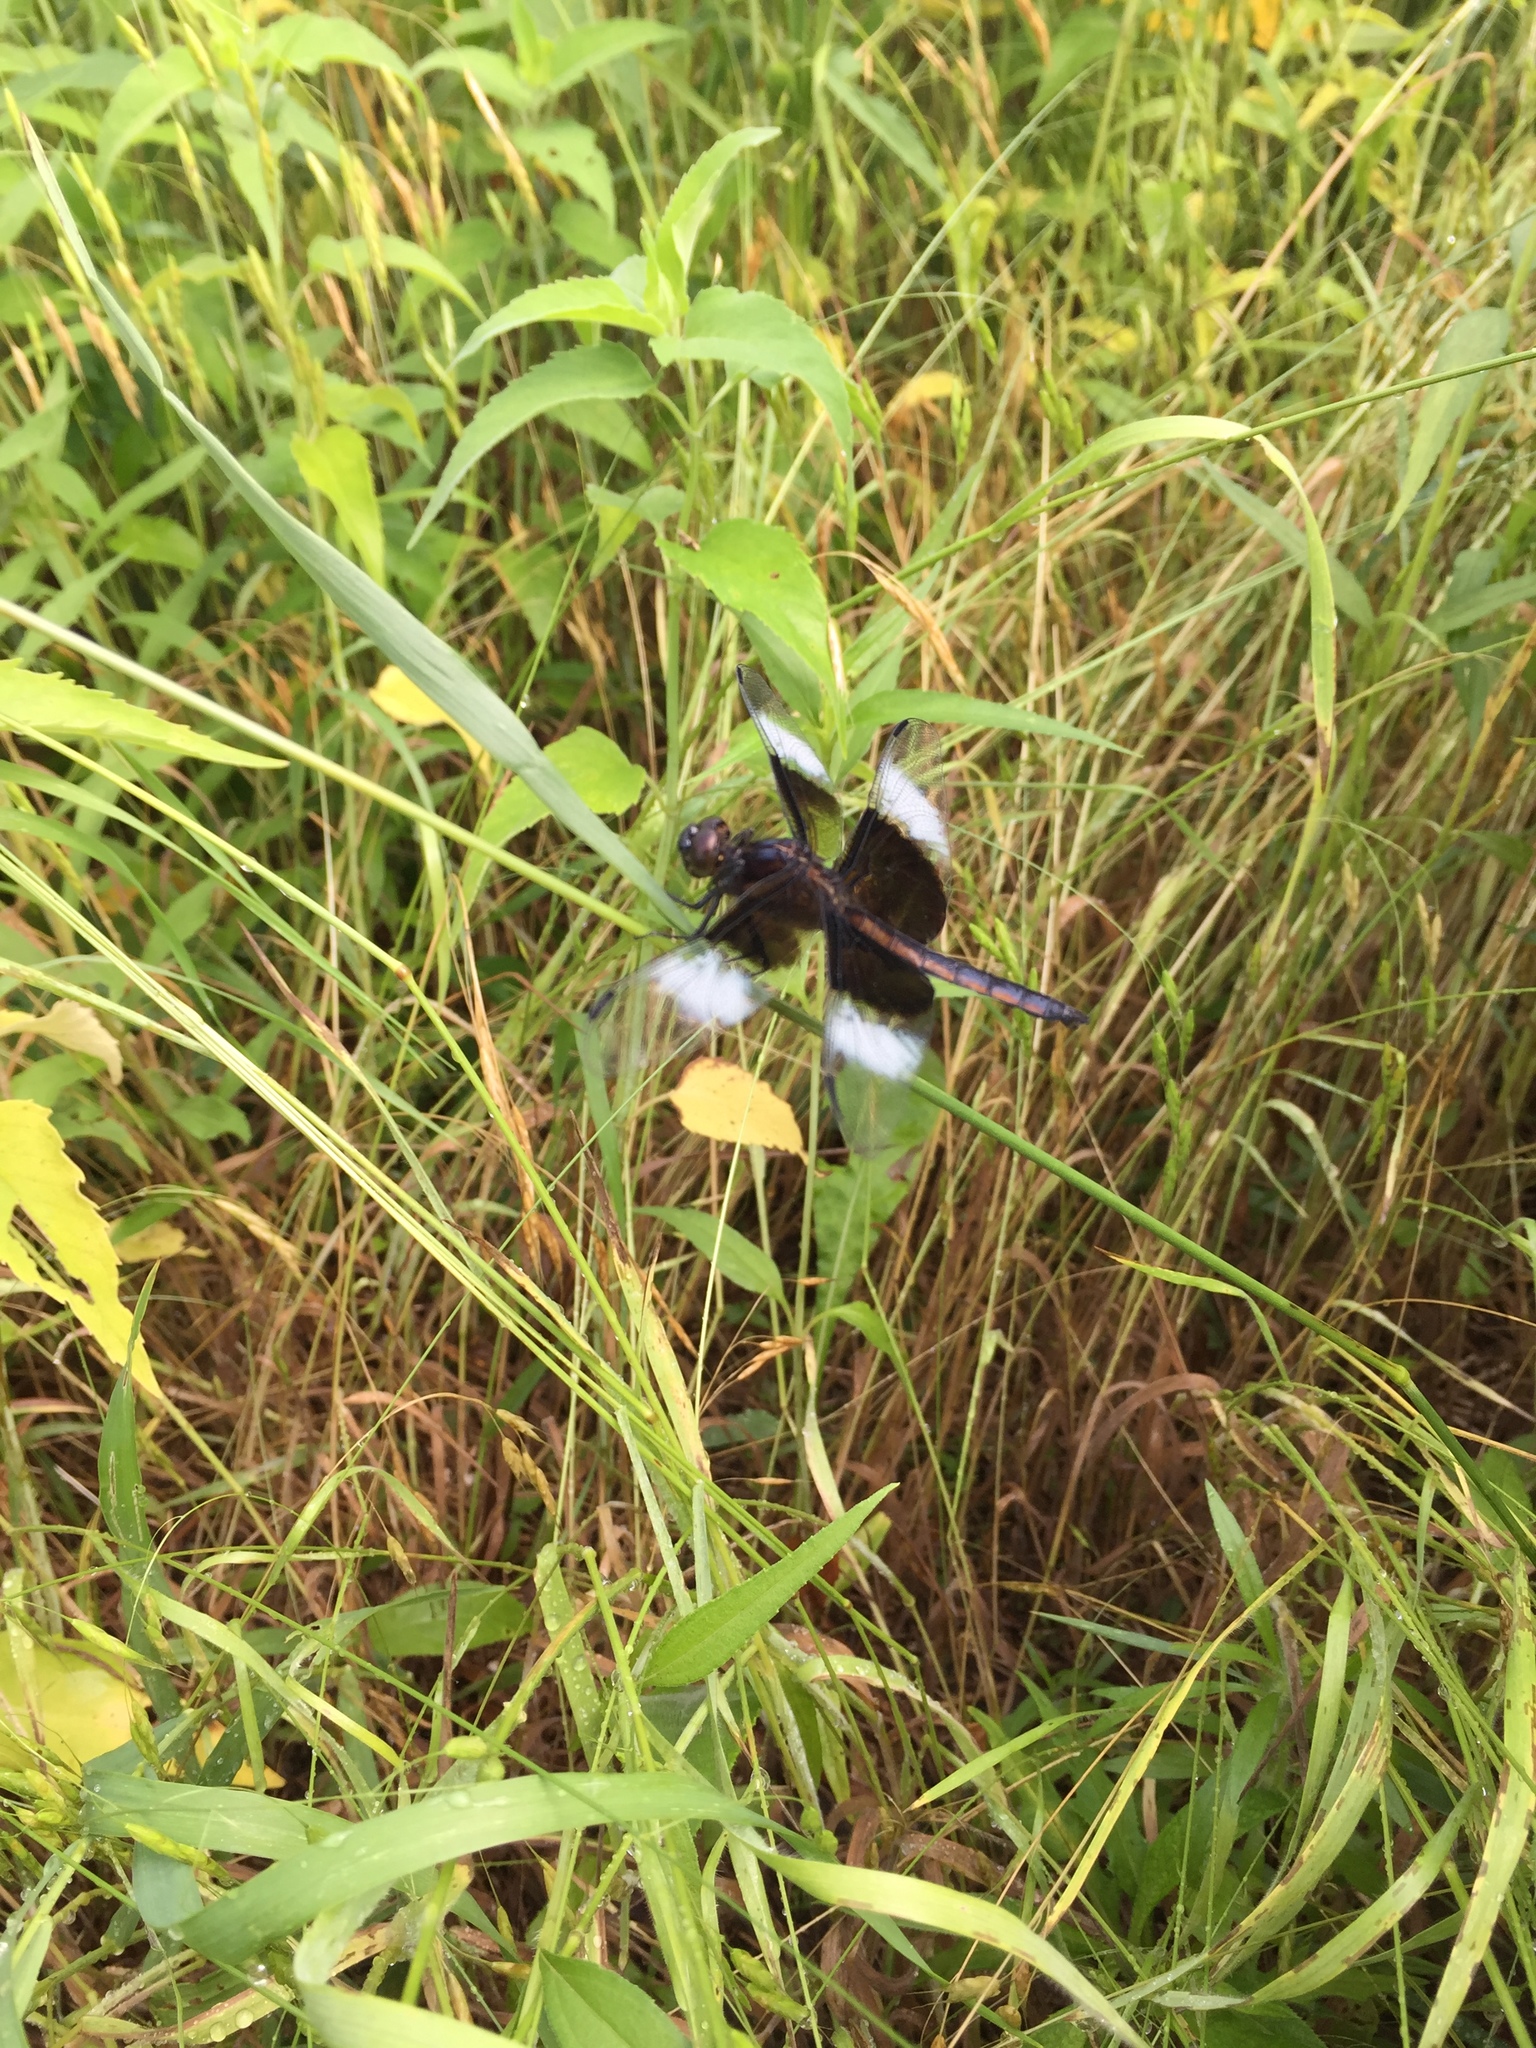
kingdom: Animalia
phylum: Arthropoda
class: Insecta
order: Odonata
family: Libellulidae
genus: Libellula
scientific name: Libellula luctuosa
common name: Widow skimmer
